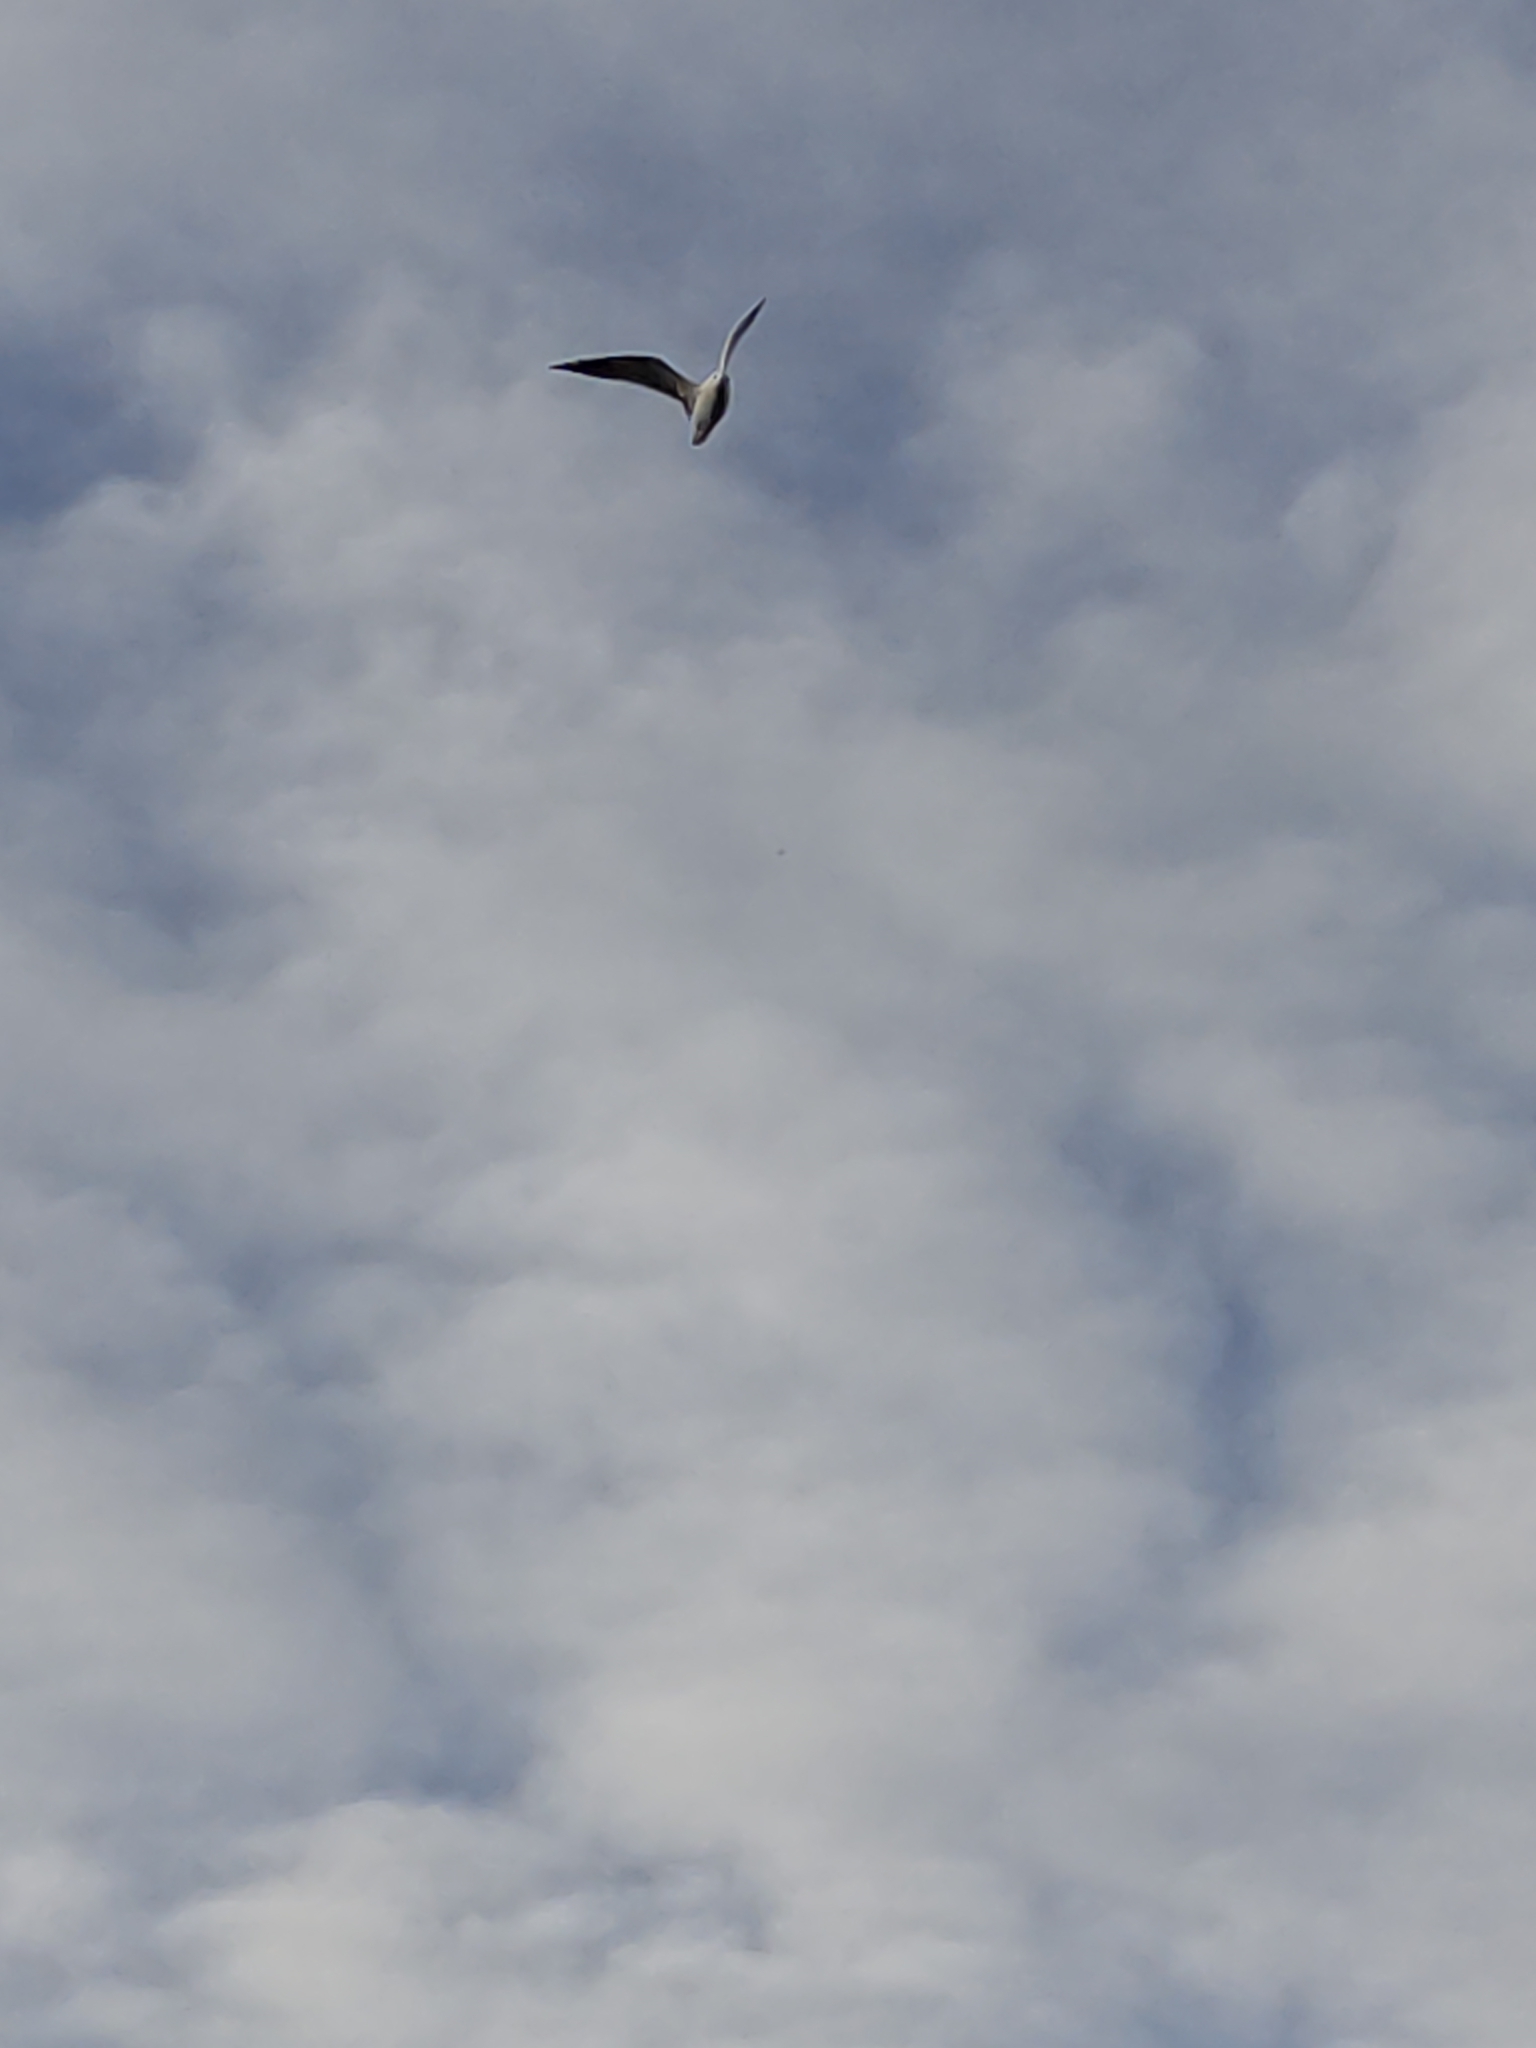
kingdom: Animalia
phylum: Chordata
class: Aves
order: Charadriiformes
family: Laridae
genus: Larus
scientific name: Larus dominicanus
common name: Kelp gull
